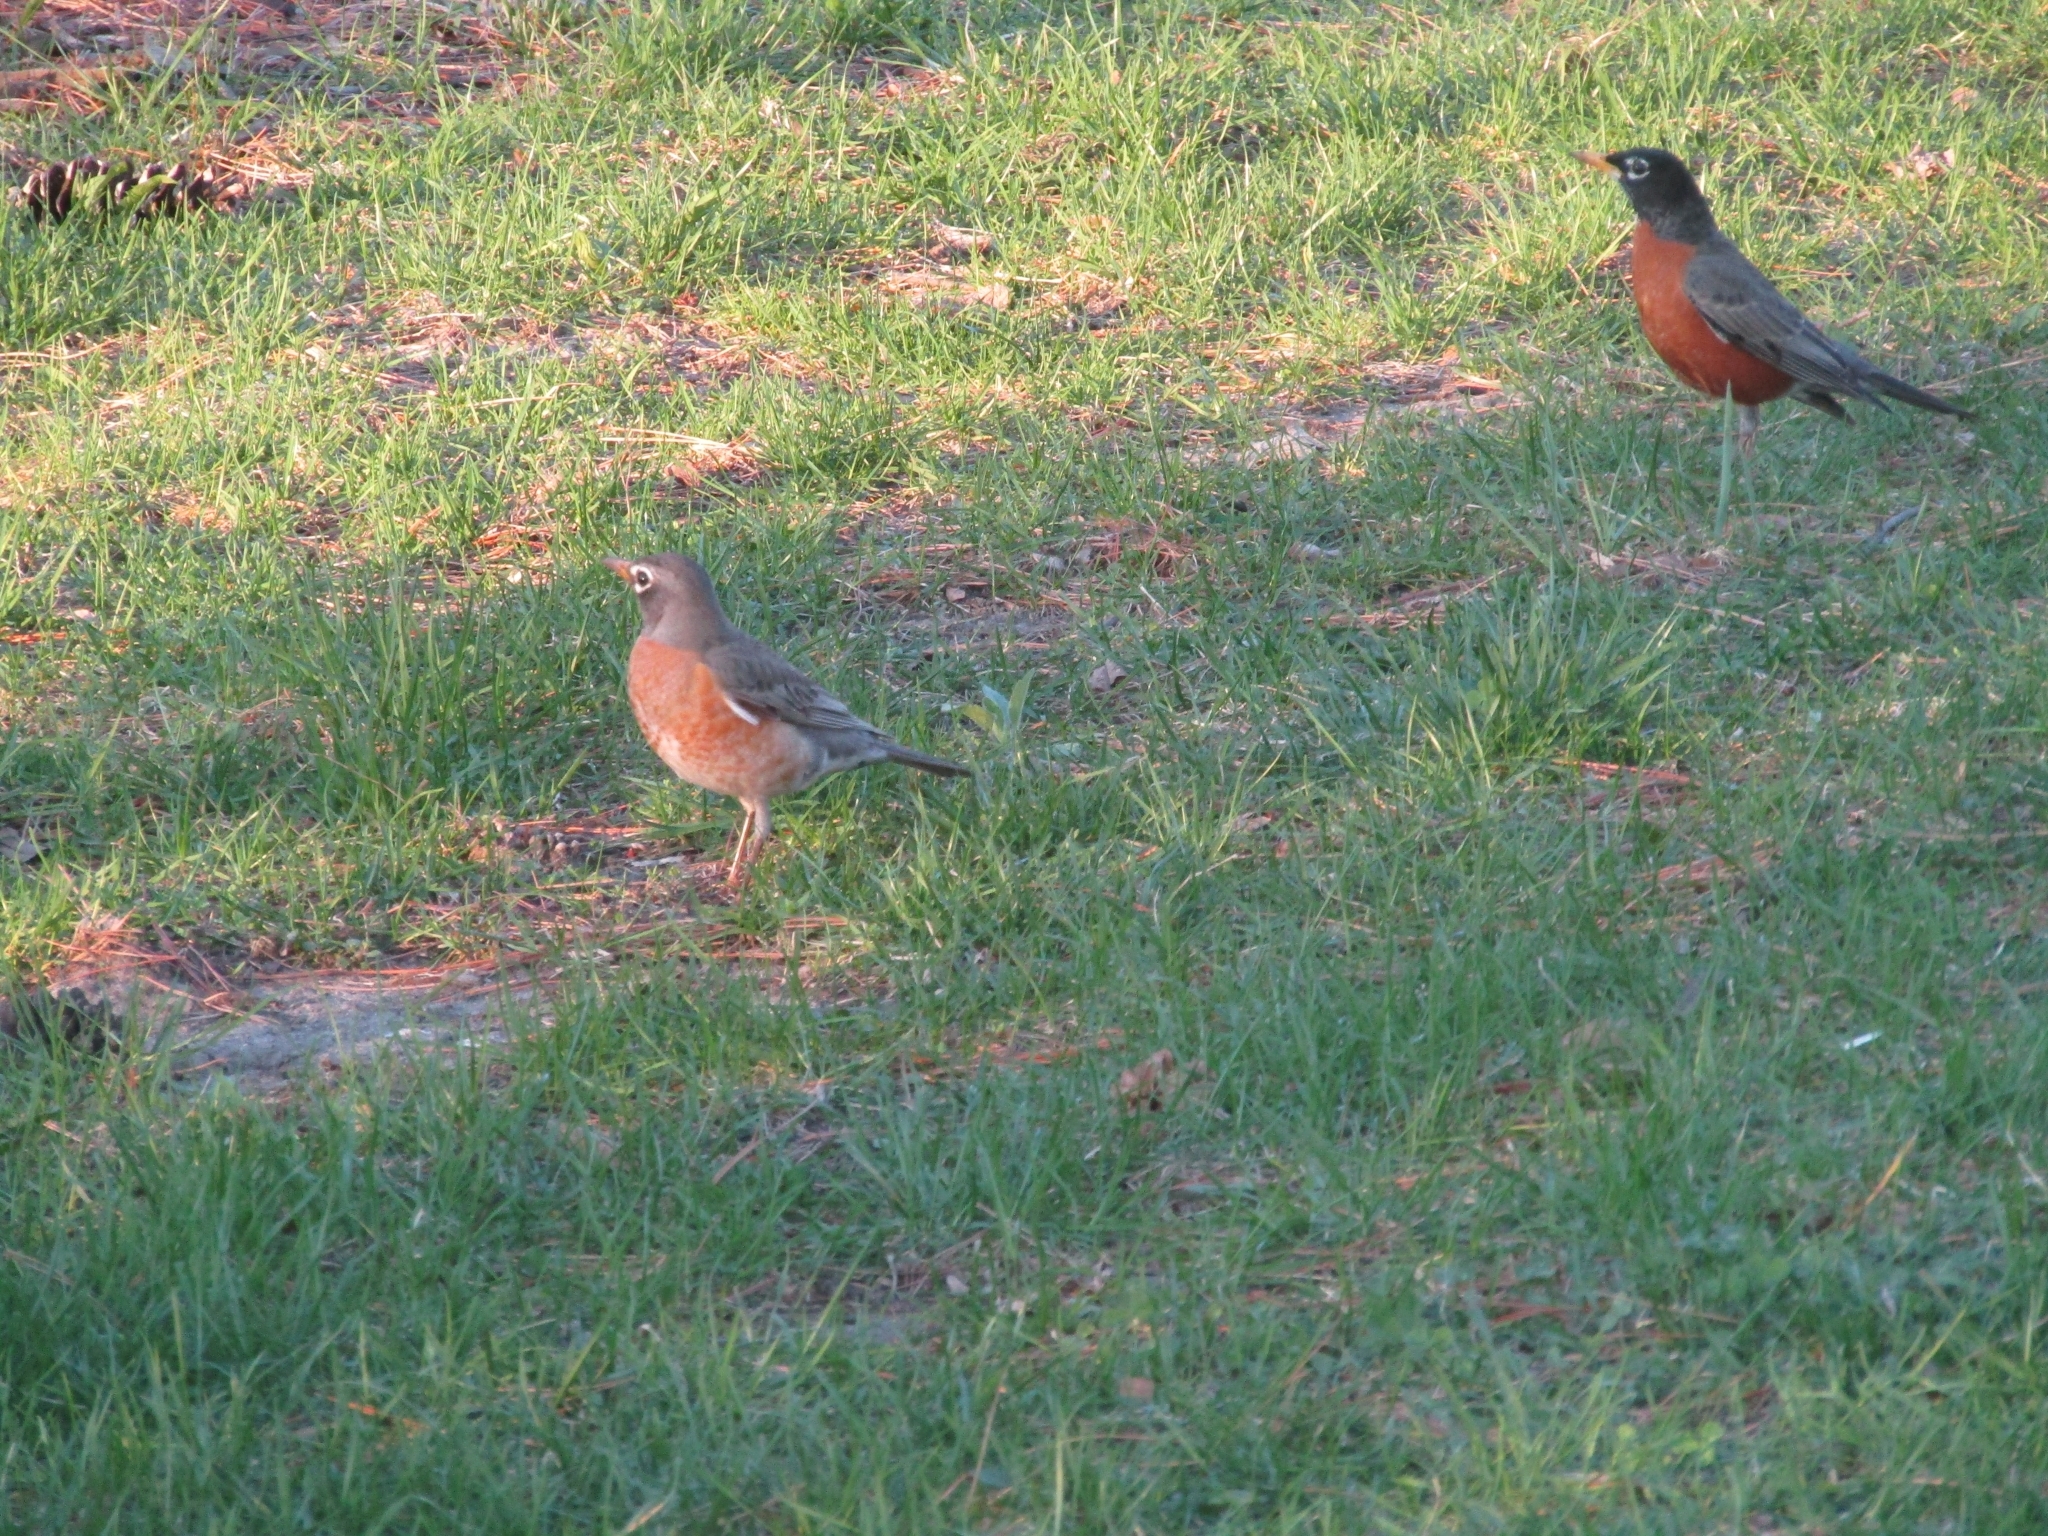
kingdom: Animalia
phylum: Chordata
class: Aves
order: Passeriformes
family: Turdidae
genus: Turdus
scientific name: Turdus migratorius
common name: American robin
